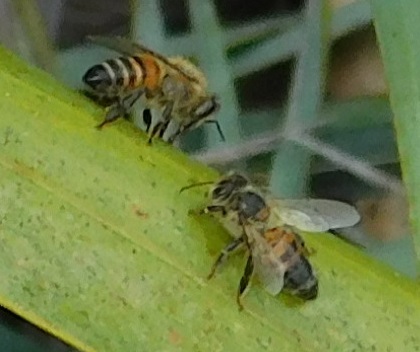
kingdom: Animalia
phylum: Arthropoda
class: Insecta
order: Hymenoptera
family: Apidae
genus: Apis
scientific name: Apis mellifera
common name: Honey bee
